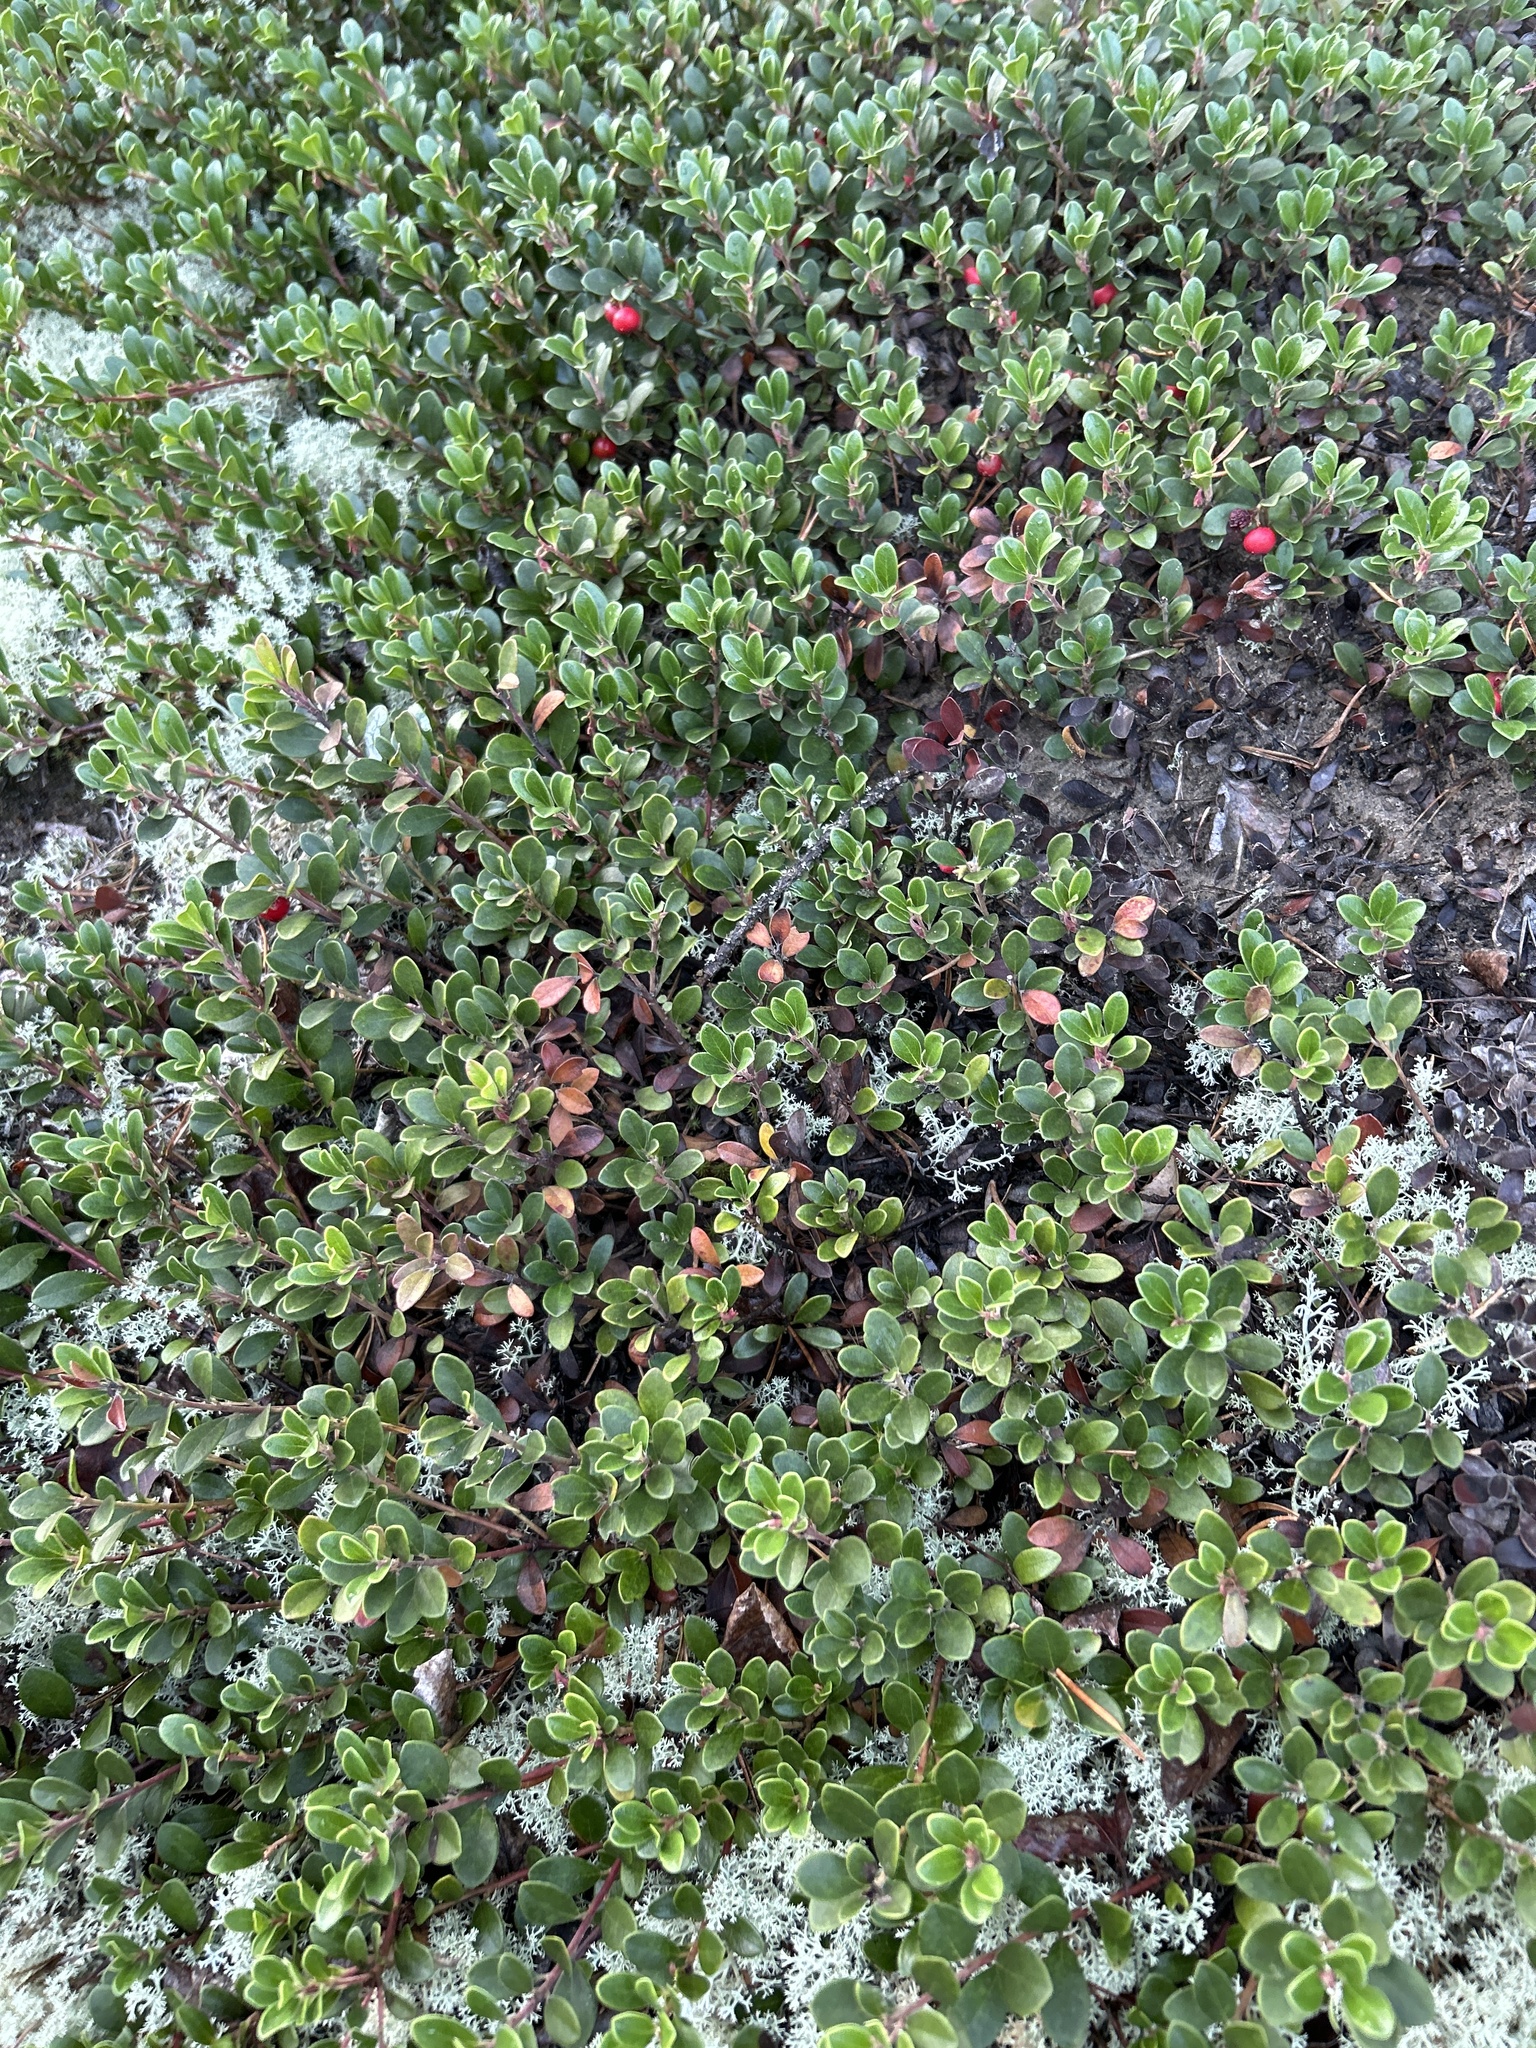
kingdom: Plantae
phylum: Tracheophyta
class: Magnoliopsida
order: Ericales
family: Ericaceae
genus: Arctostaphylos
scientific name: Arctostaphylos uva-ursi
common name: Bearberry
